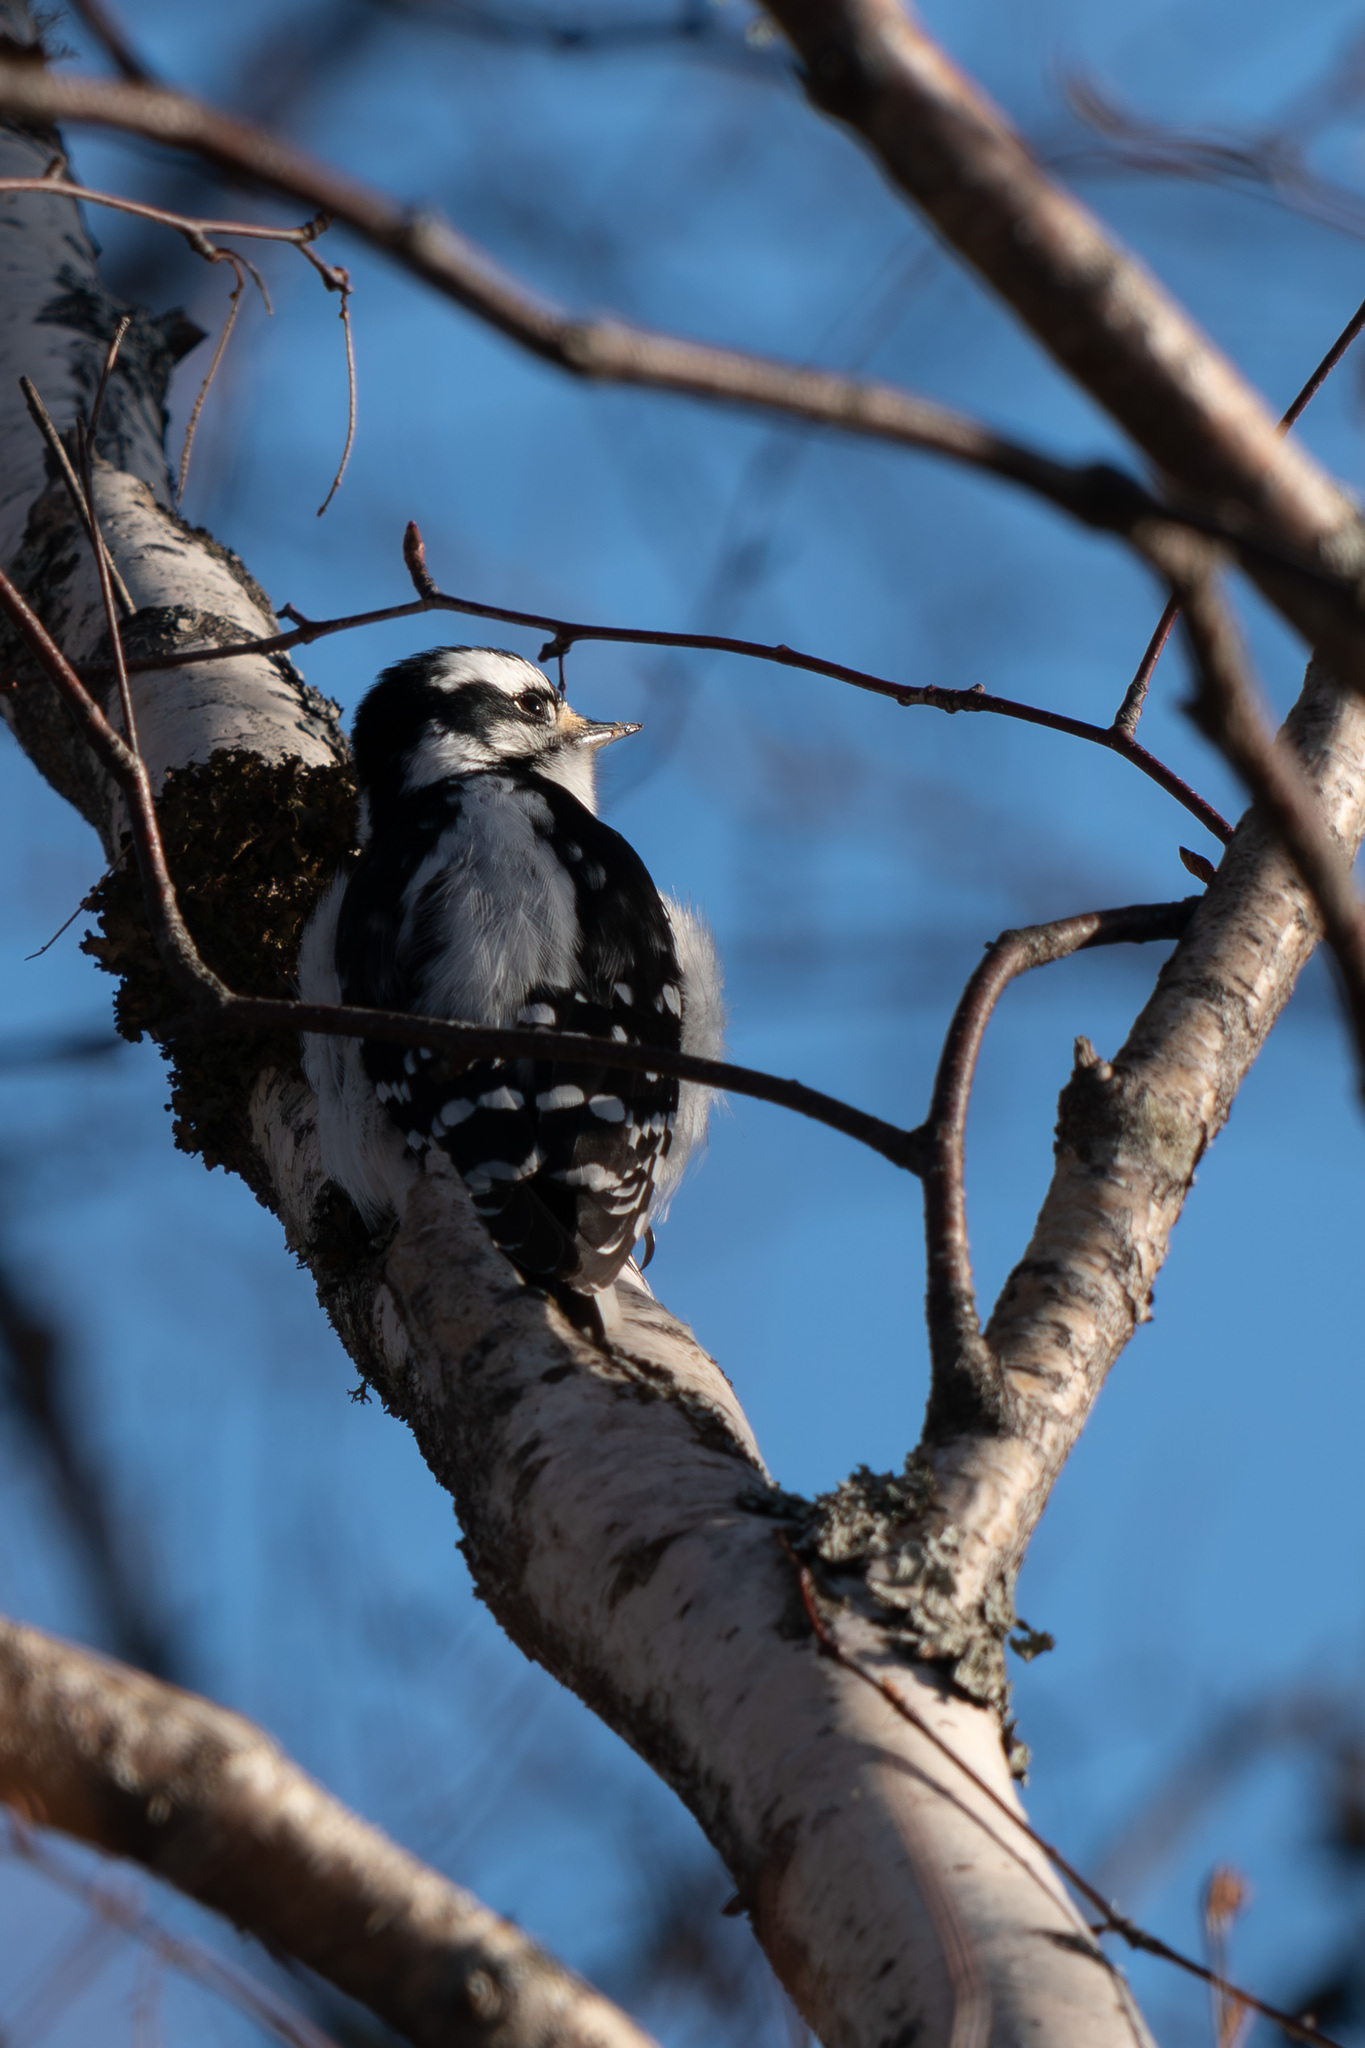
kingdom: Animalia
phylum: Chordata
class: Aves
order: Piciformes
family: Picidae
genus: Dryobates
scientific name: Dryobates pubescens
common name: Downy woodpecker
